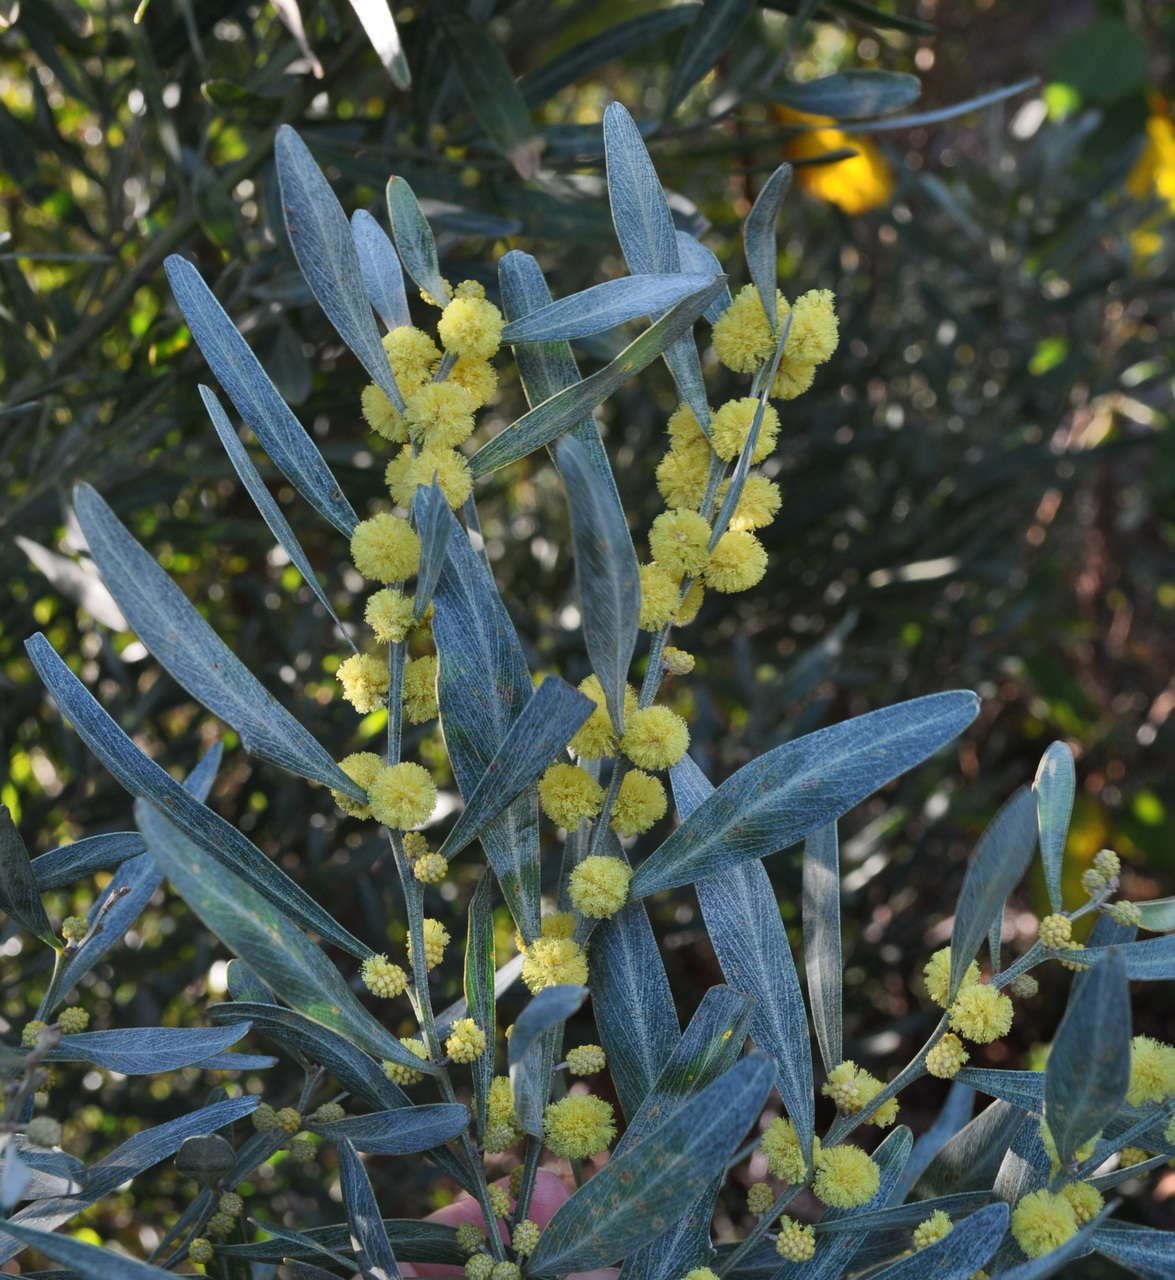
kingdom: Plantae
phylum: Tracheophyta
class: Magnoliopsida
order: Fabales
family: Fabaceae
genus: Acacia
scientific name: Acacia stricta
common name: Hop wattle
